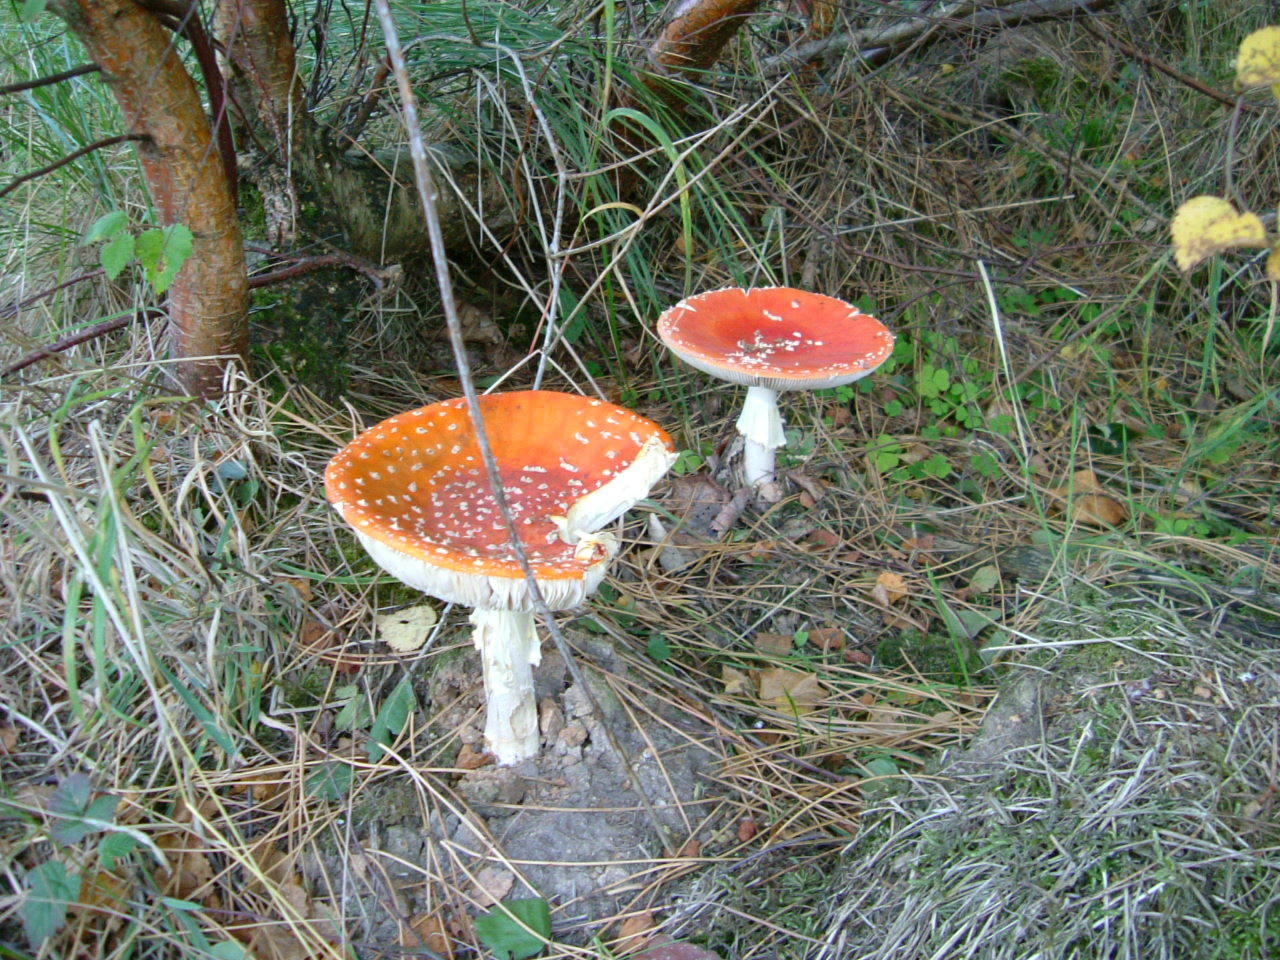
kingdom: Fungi
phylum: Basidiomycota
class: Agaricomycetes
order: Agaricales
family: Amanitaceae
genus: Amanita
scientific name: Amanita muscaria
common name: Fly agaric
